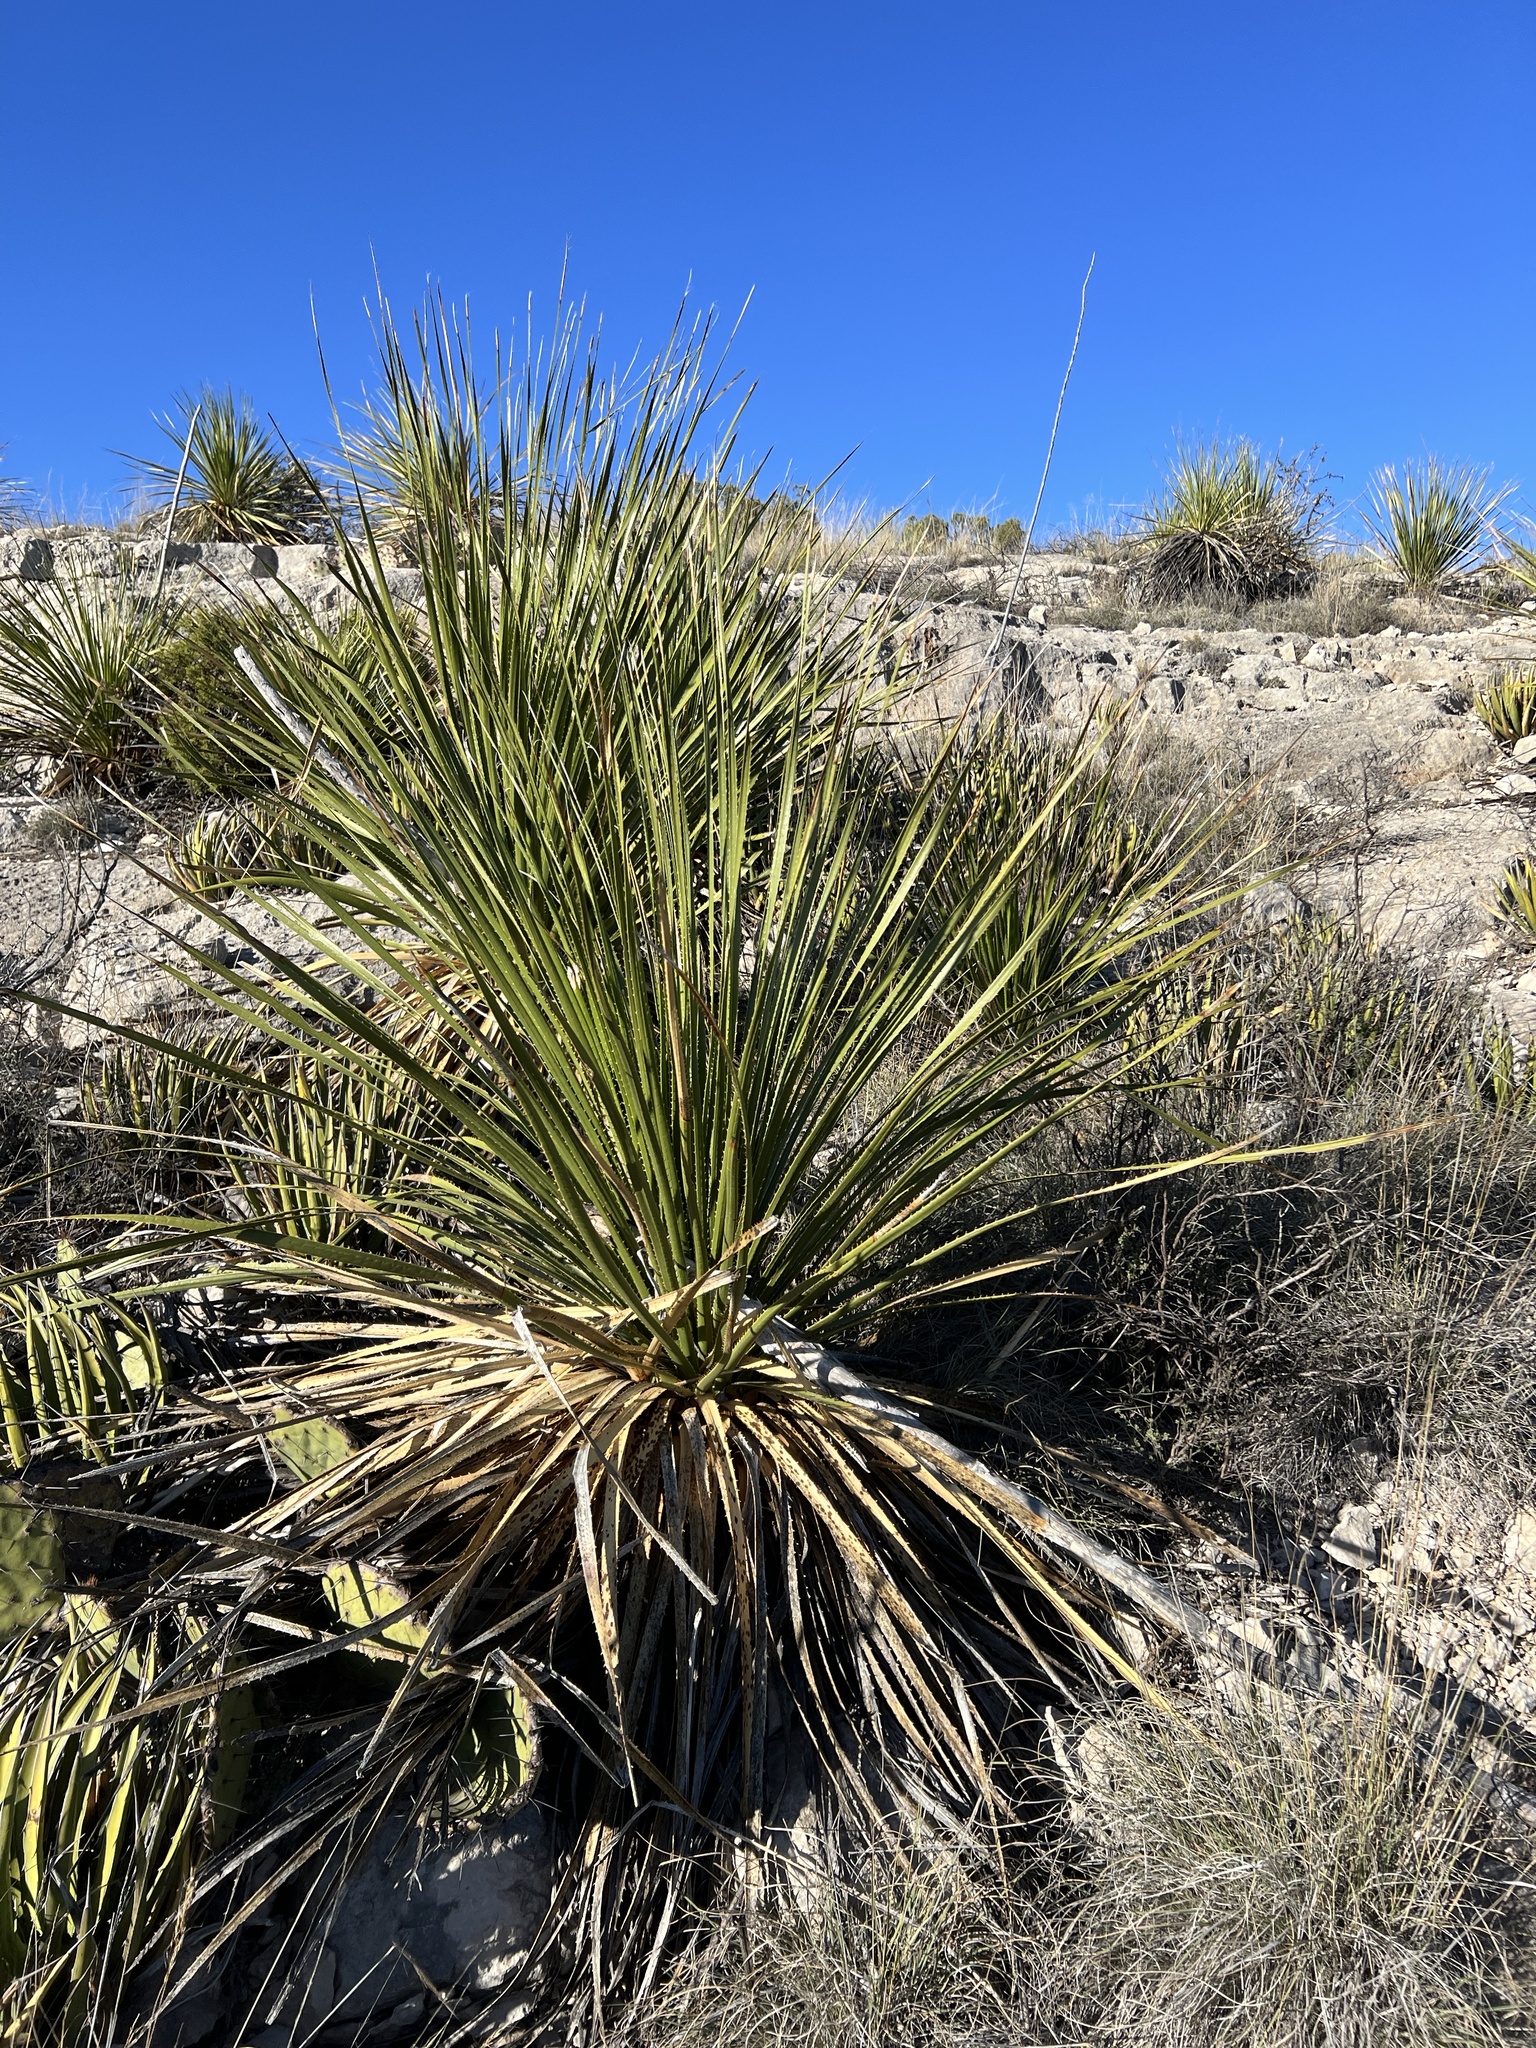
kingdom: Plantae
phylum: Tracheophyta
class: Liliopsida
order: Asparagales
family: Asparagaceae
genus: Dasylirion
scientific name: Dasylirion texanum
